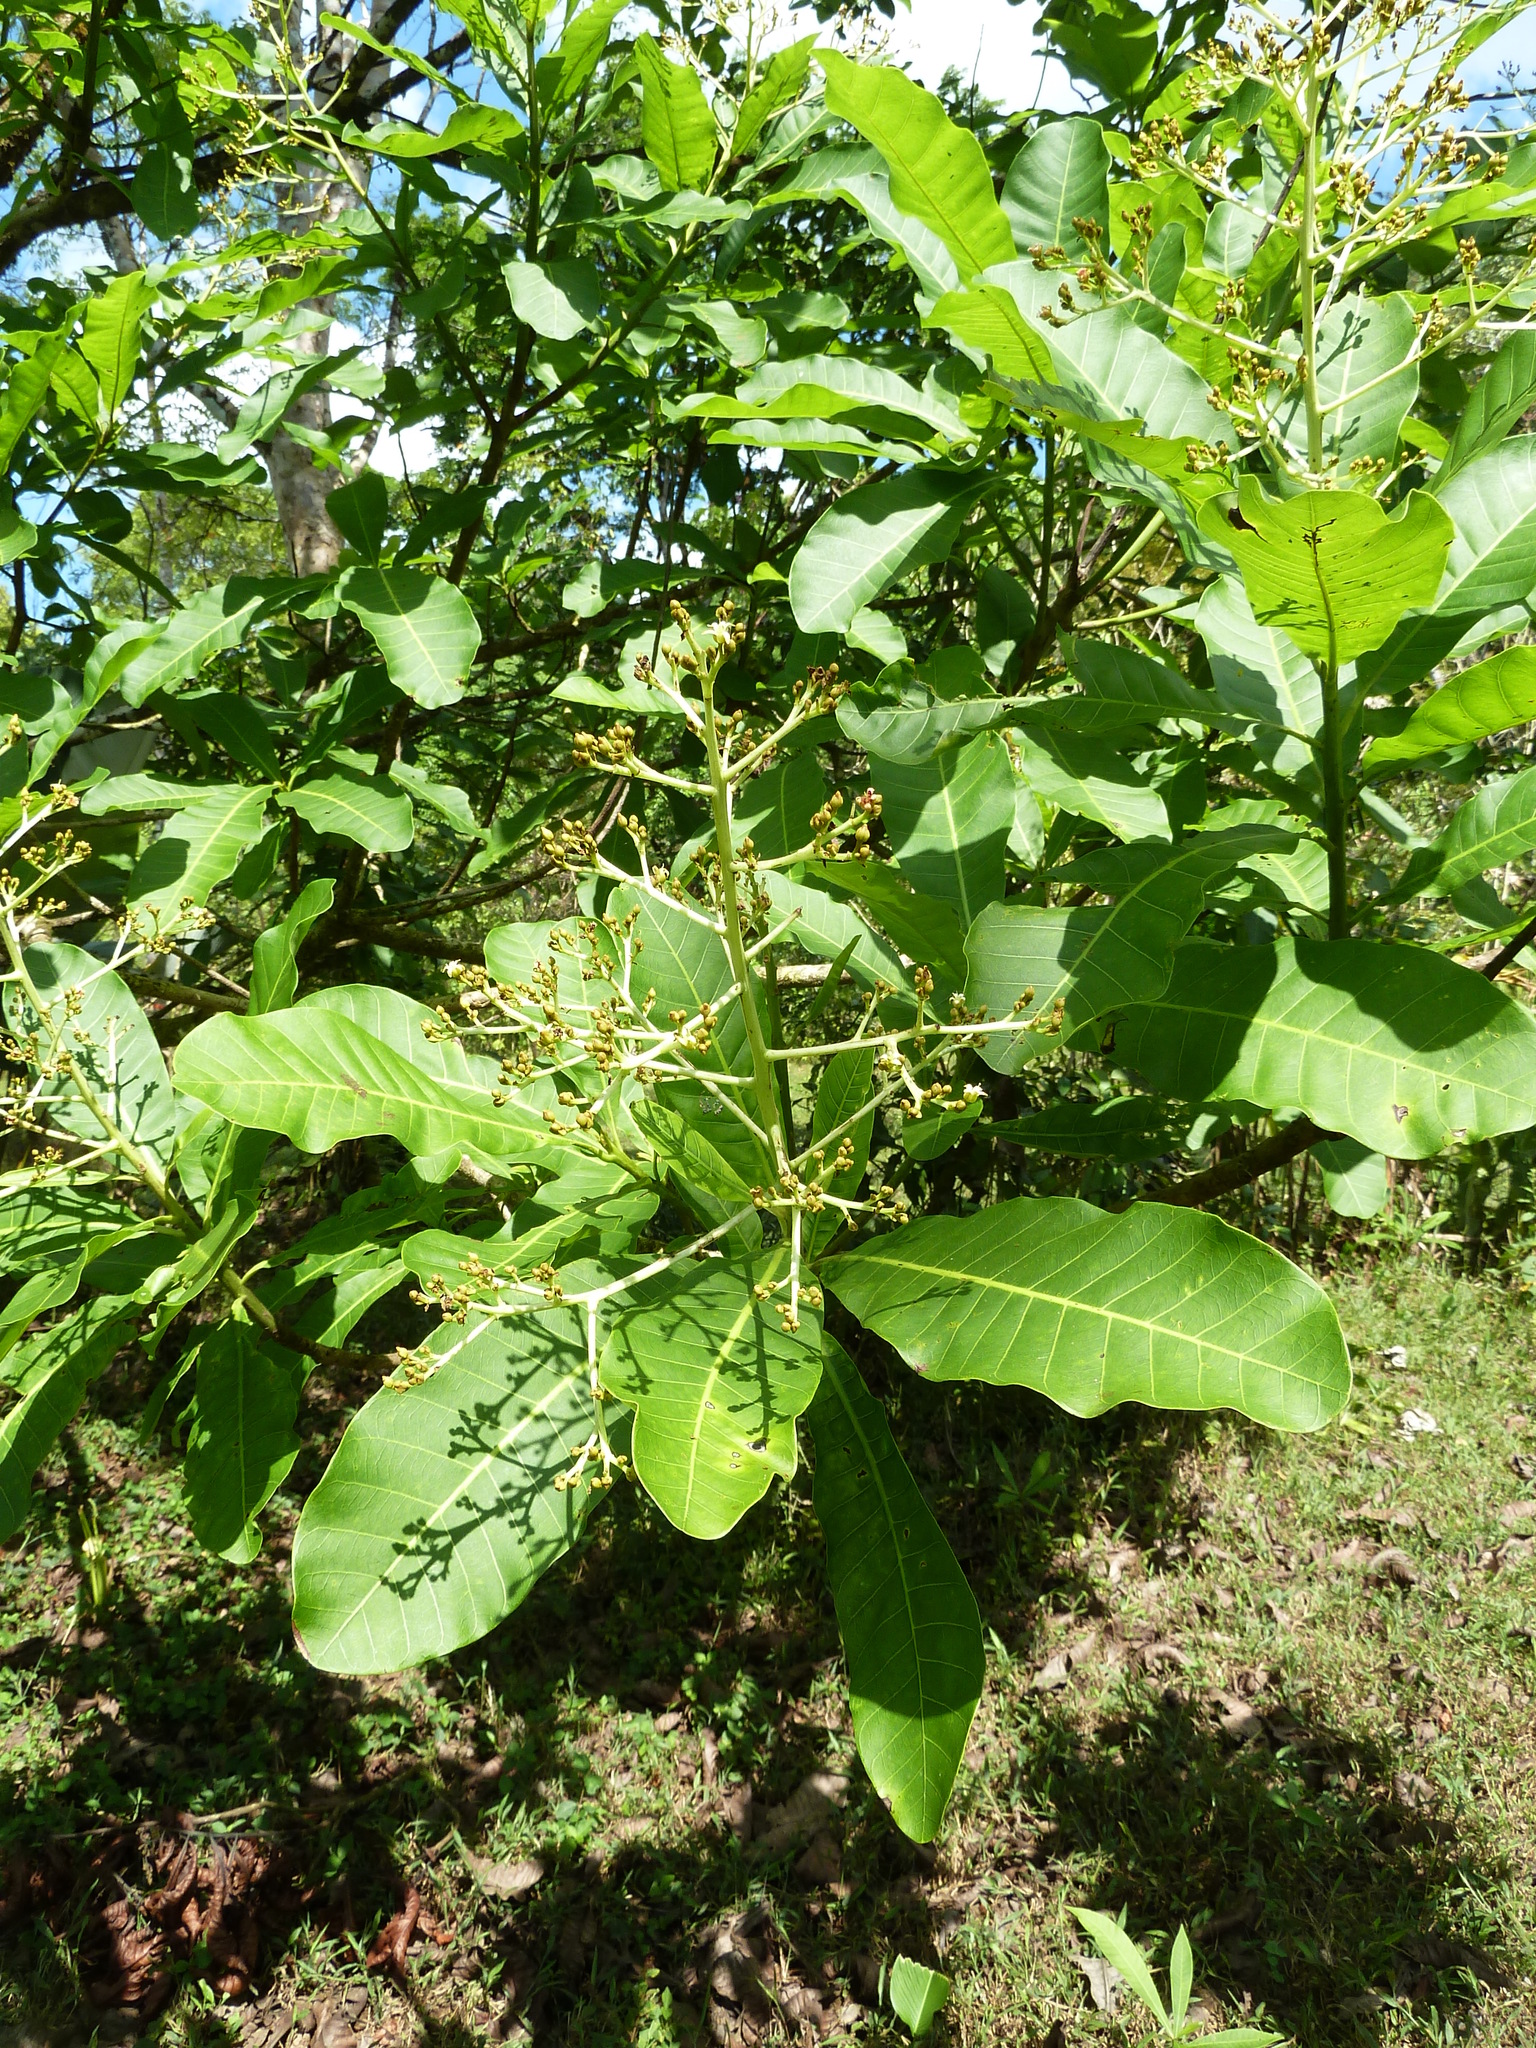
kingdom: Plantae
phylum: Tracheophyta
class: Magnoliopsida
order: Sapindales
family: Anacardiaceae
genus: Anacardium
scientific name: Anacardium excelsum
